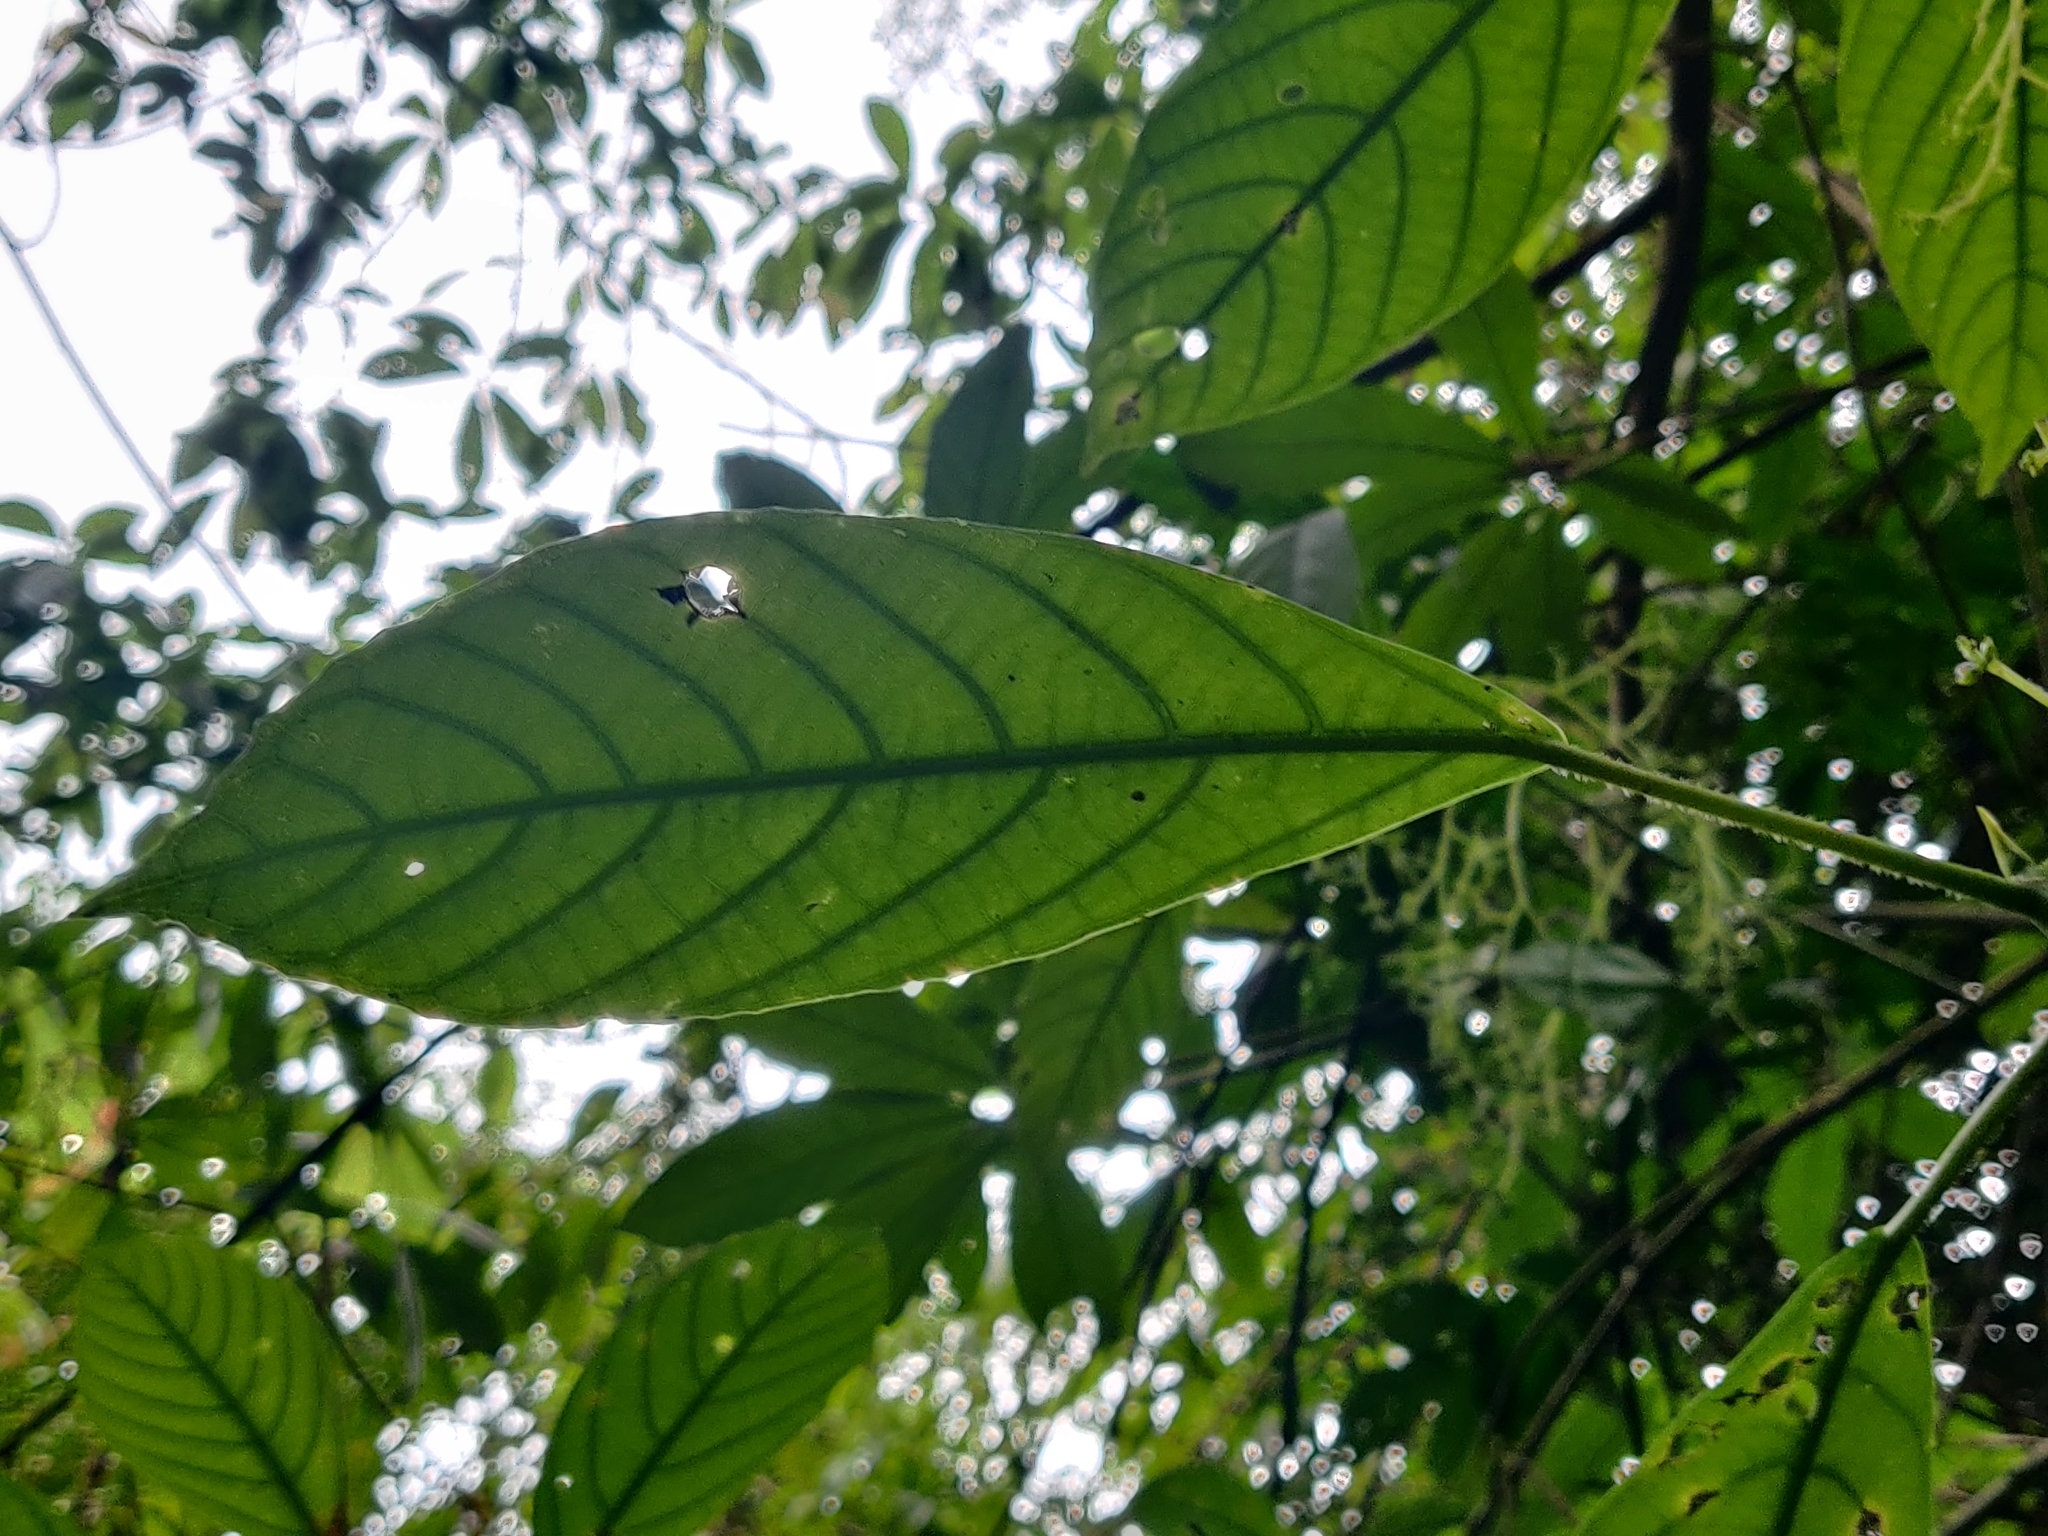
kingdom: Plantae
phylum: Tracheophyta
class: Magnoliopsida
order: Rosales
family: Urticaceae
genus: Dendrocnide
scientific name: Dendrocnide sinuata
